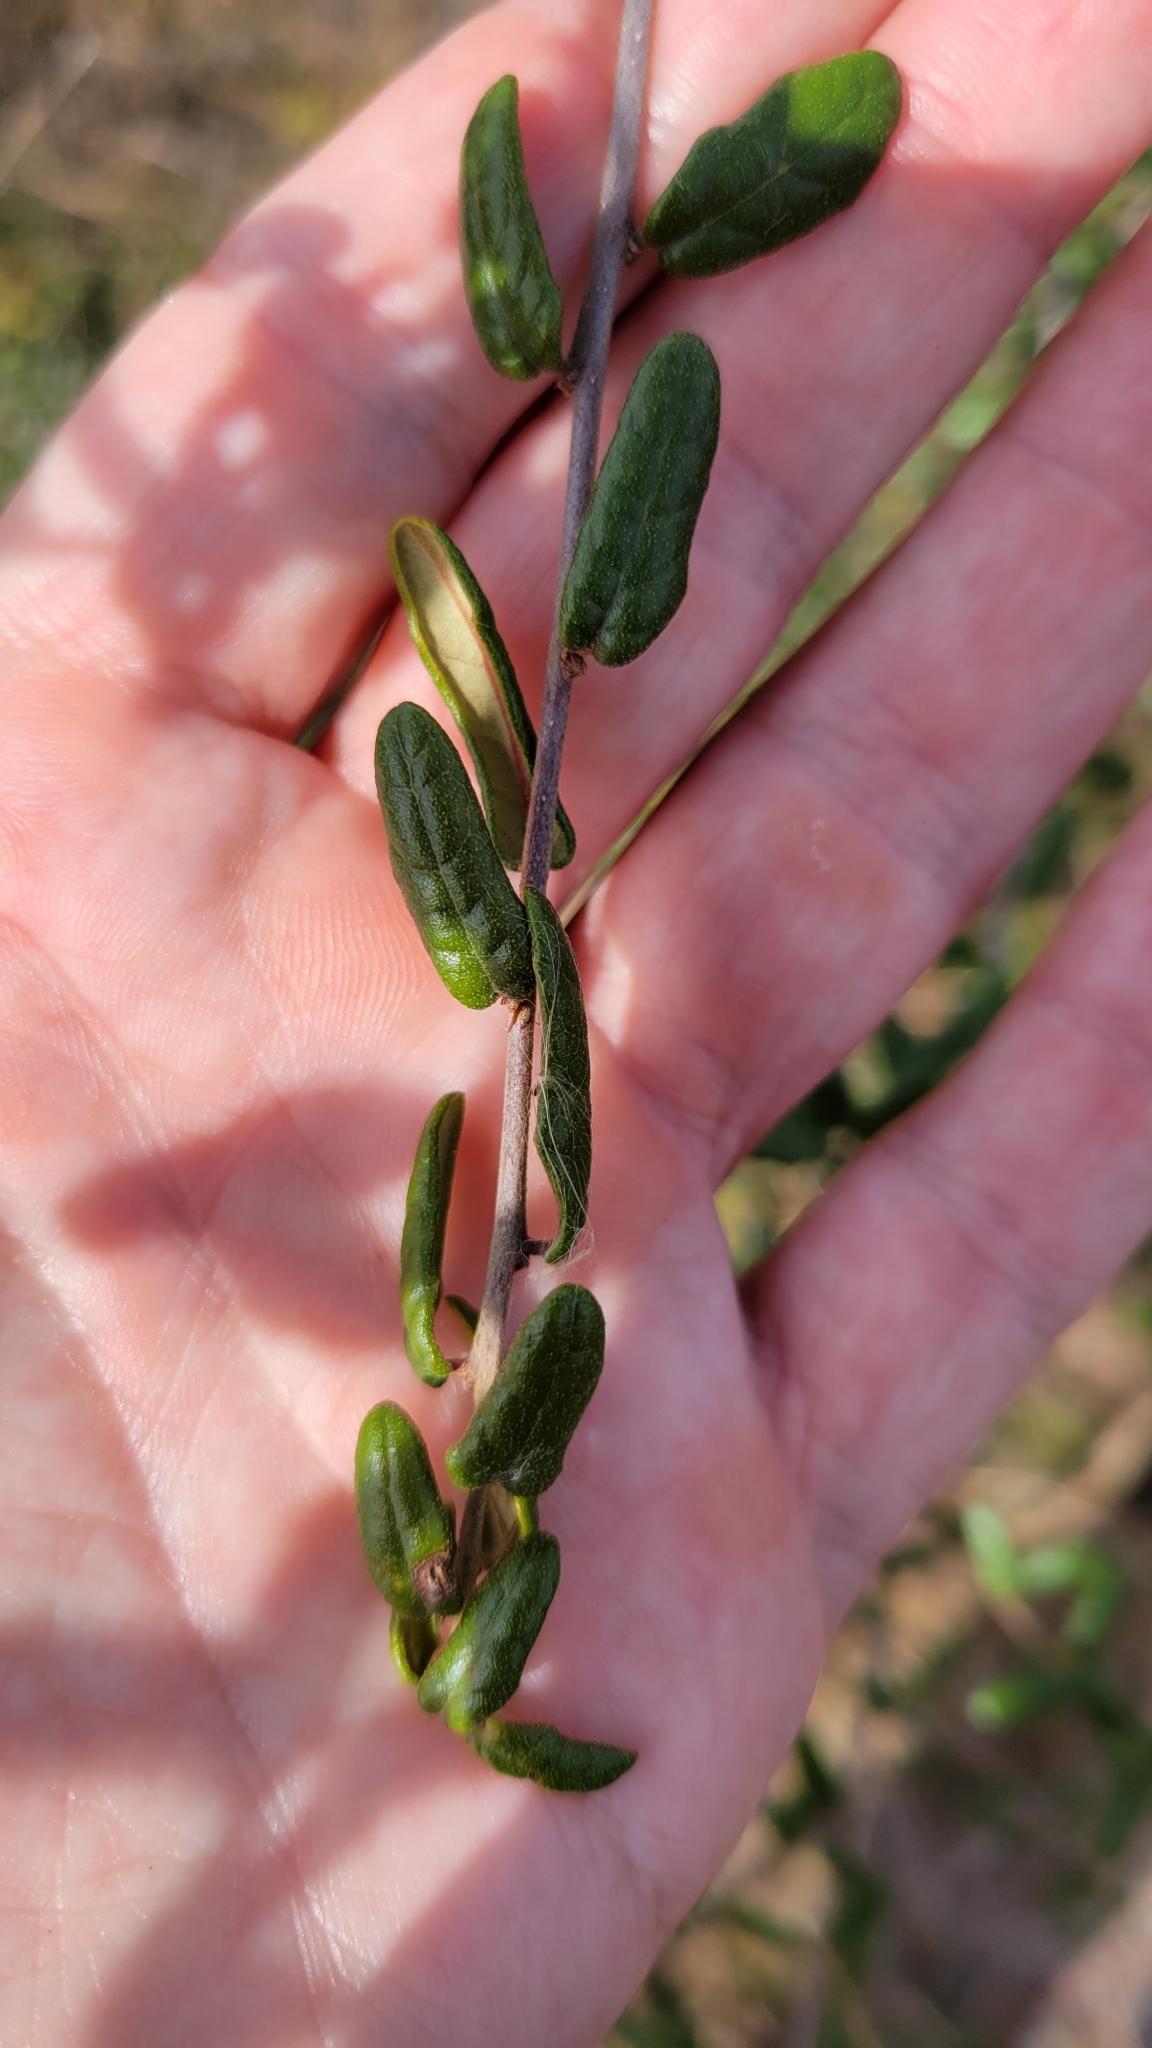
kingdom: Plantae
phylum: Tracheophyta
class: Magnoliopsida
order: Fagales
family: Fagaceae
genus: Quercus
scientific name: Quercus geminata
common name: Sand live oak
